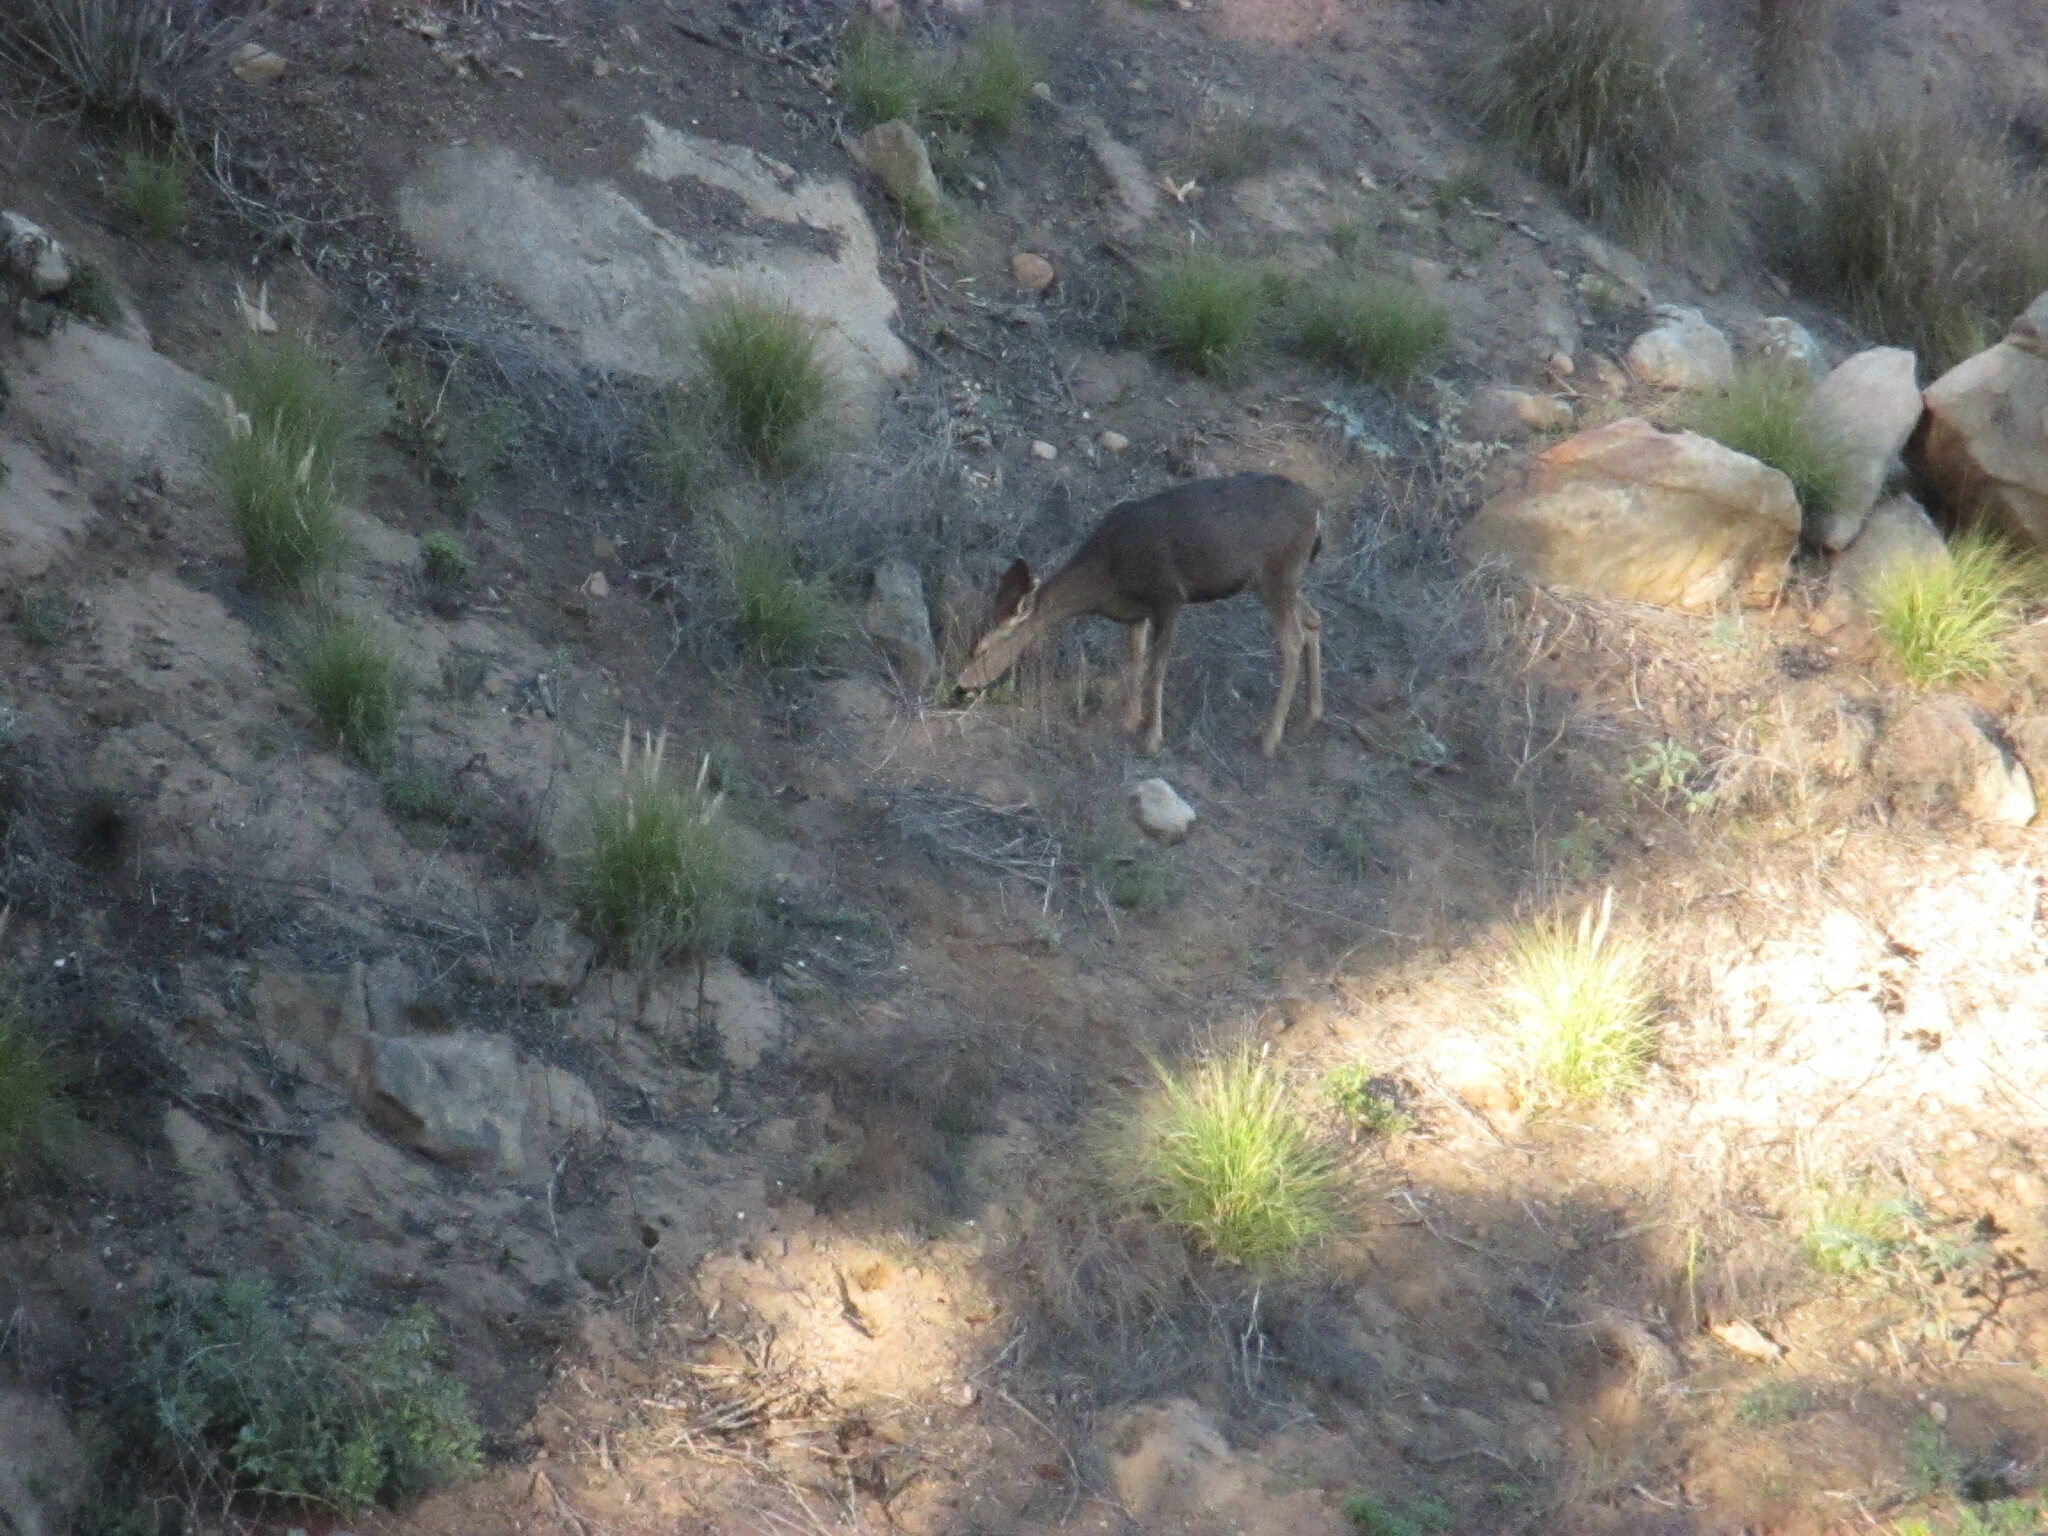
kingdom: Animalia
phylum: Chordata
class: Mammalia
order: Artiodactyla
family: Cervidae
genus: Odocoileus
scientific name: Odocoileus hemionus
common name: Mule deer
